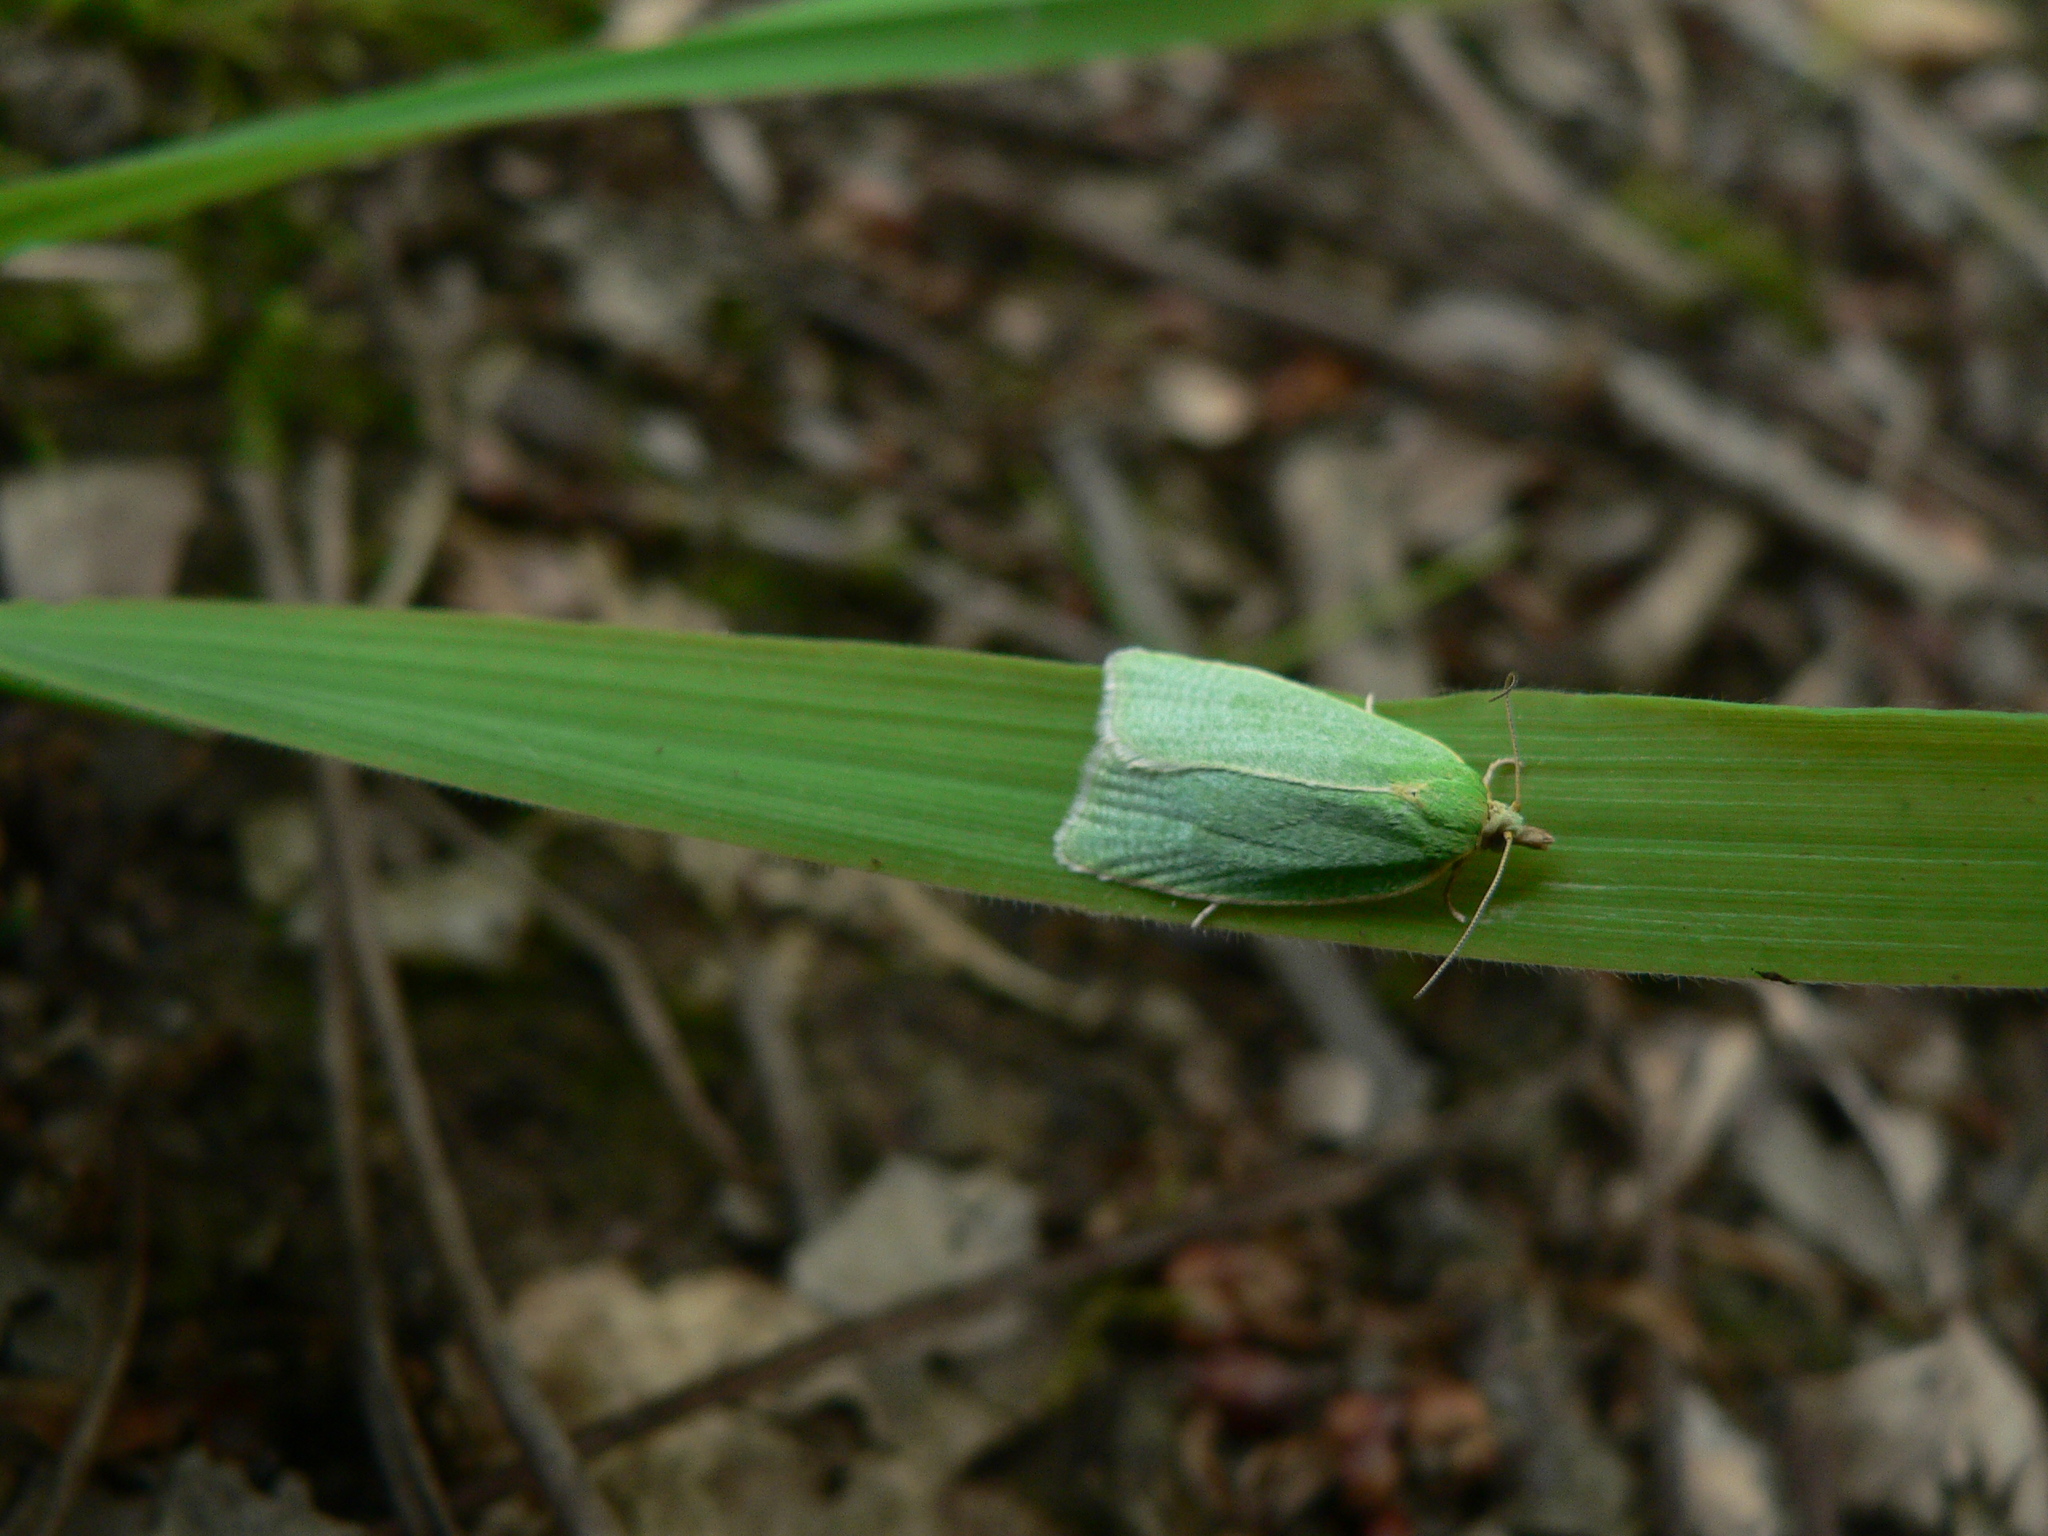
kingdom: Animalia
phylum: Arthropoda
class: Insecta
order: Lepidoptera
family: Tortricidae
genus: Tortrix
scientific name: Tortrix viridana
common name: Green oak tortrix
